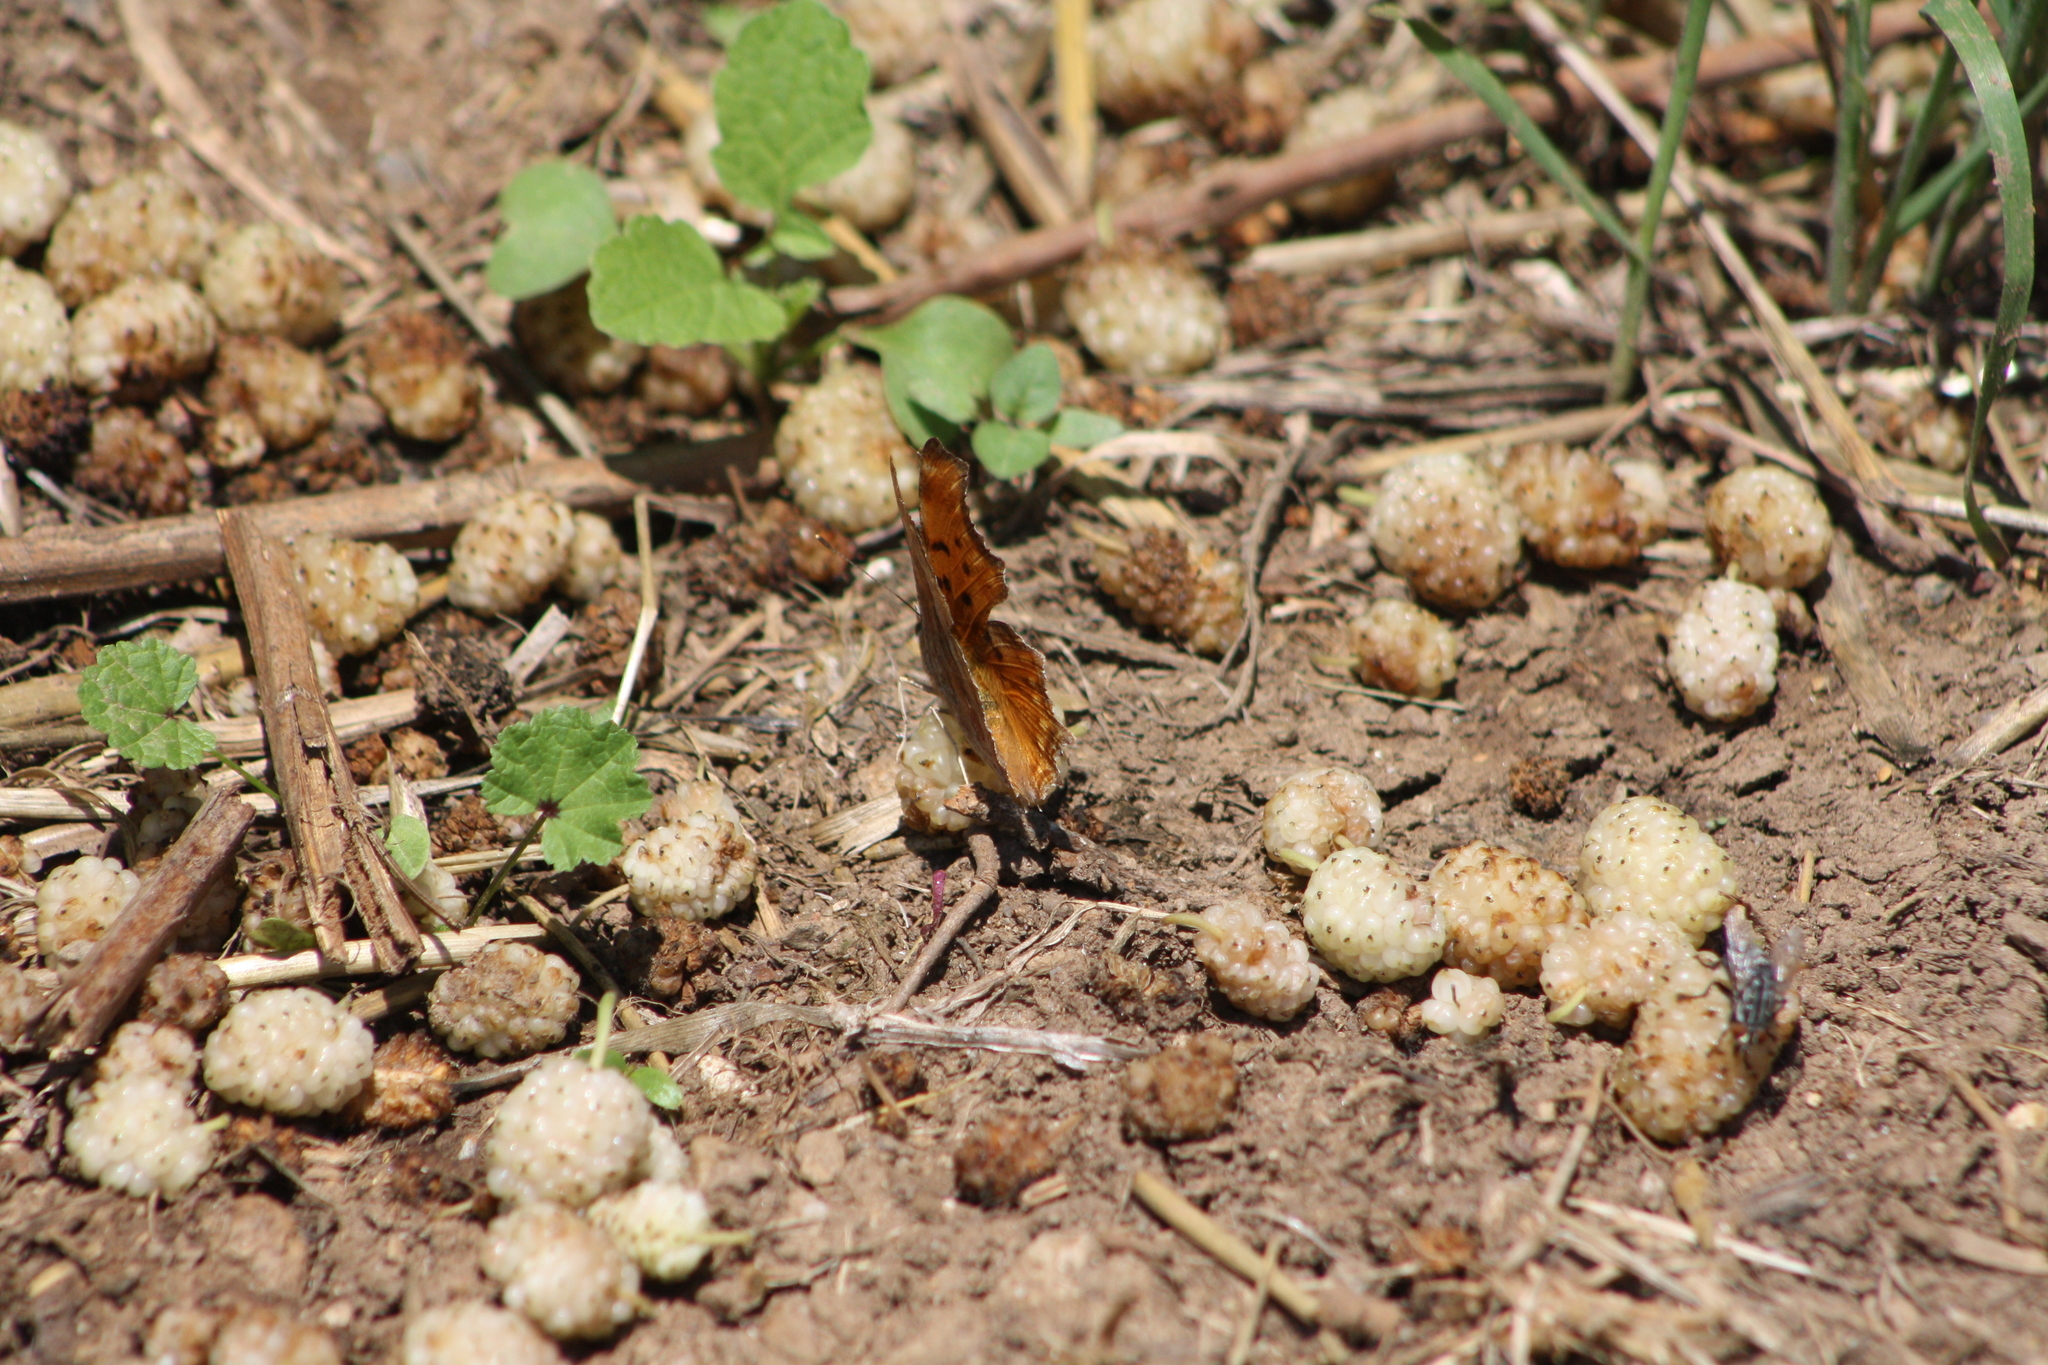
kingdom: Animalia
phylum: Arthropoda
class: Insecta
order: Lepidoptera
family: Nymphalidae
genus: Polygonia
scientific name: Polygonia egea
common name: Southern comma
